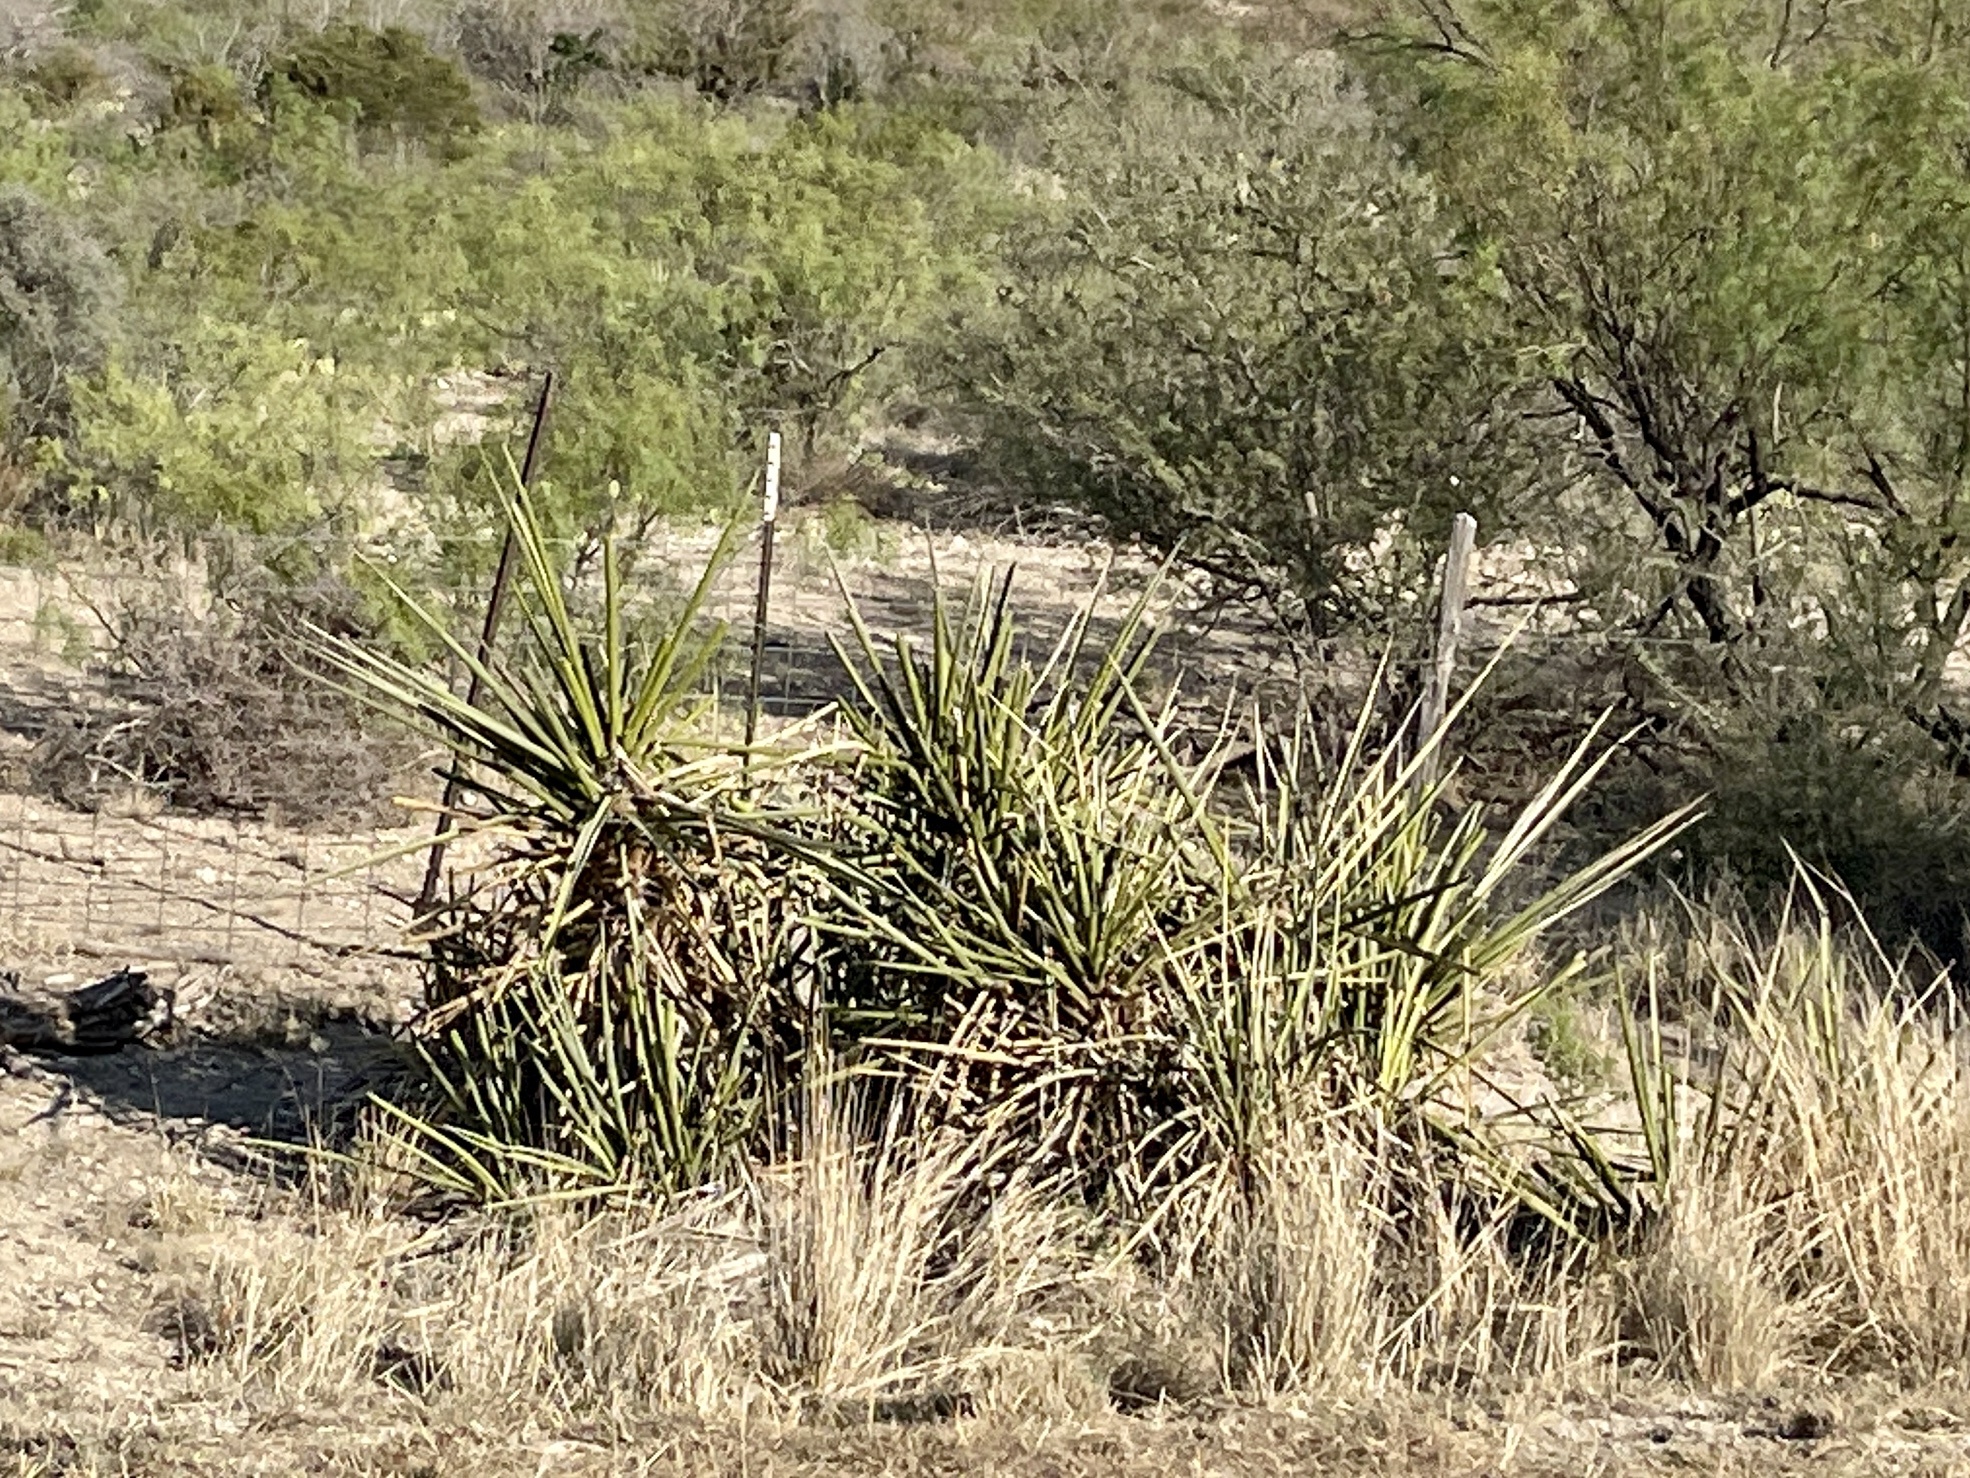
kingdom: Plantae
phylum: Tracheophyta
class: Liliopsida
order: Asparagales
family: Asparagaceae
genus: Yucca
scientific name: Yucca treculiana
